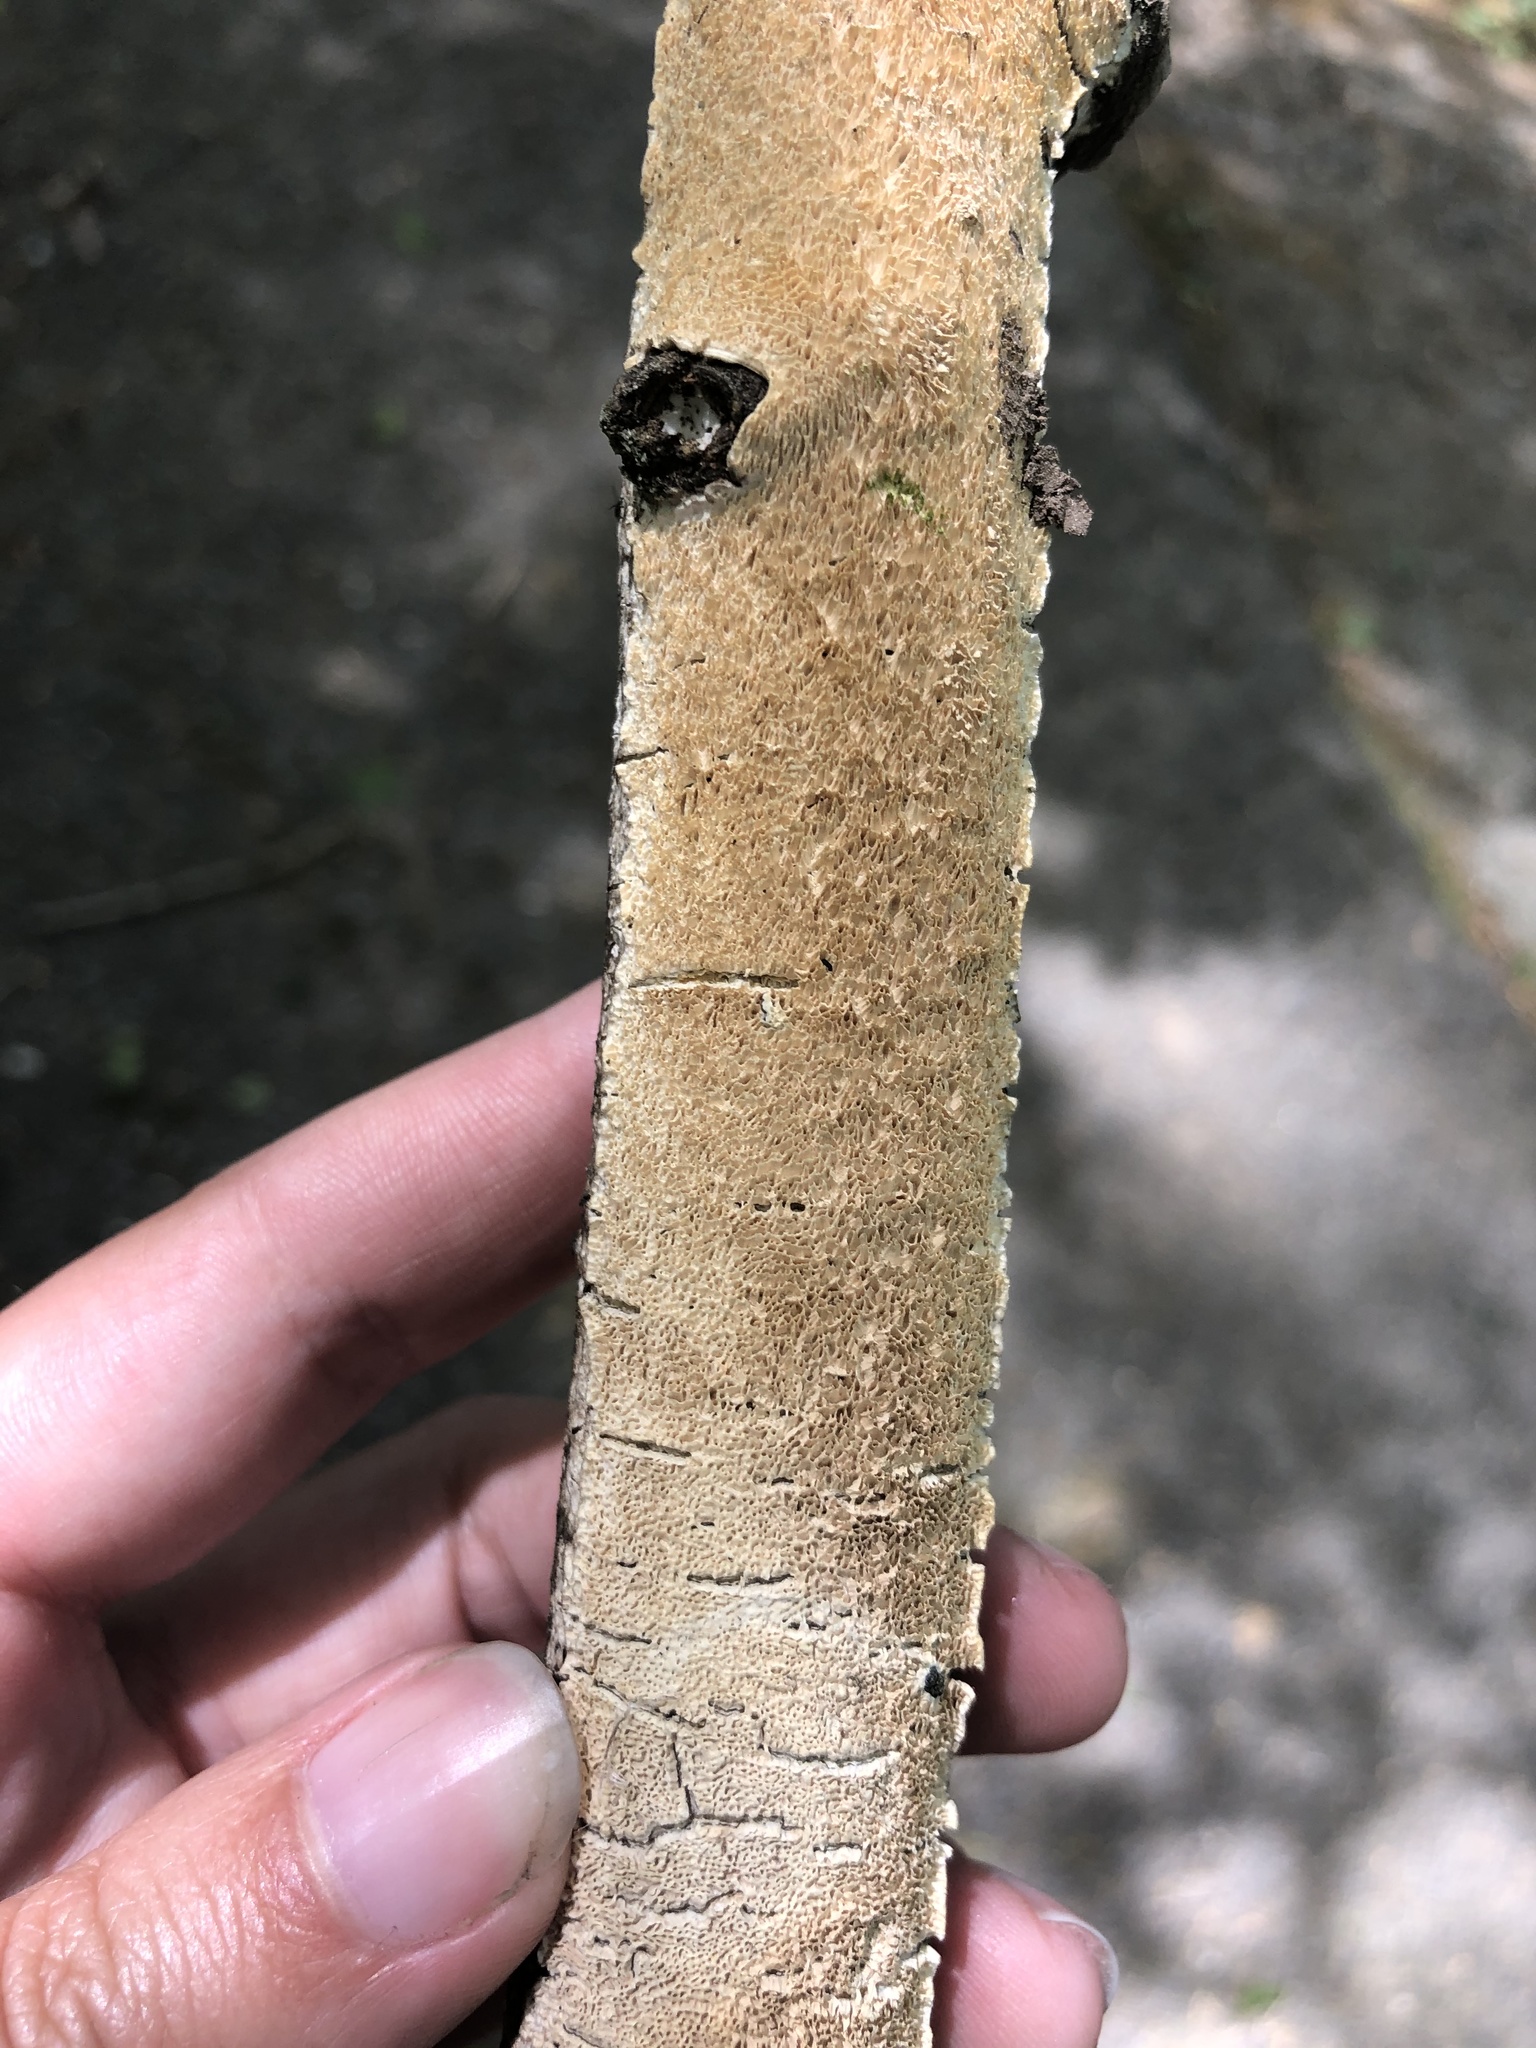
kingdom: Fungi
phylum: Basidiomycota
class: Agaricomycetes
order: Polyporales
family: Irpicaceae
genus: Irpex
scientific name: Irpex lacteus
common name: Milk-white toothed polypore
